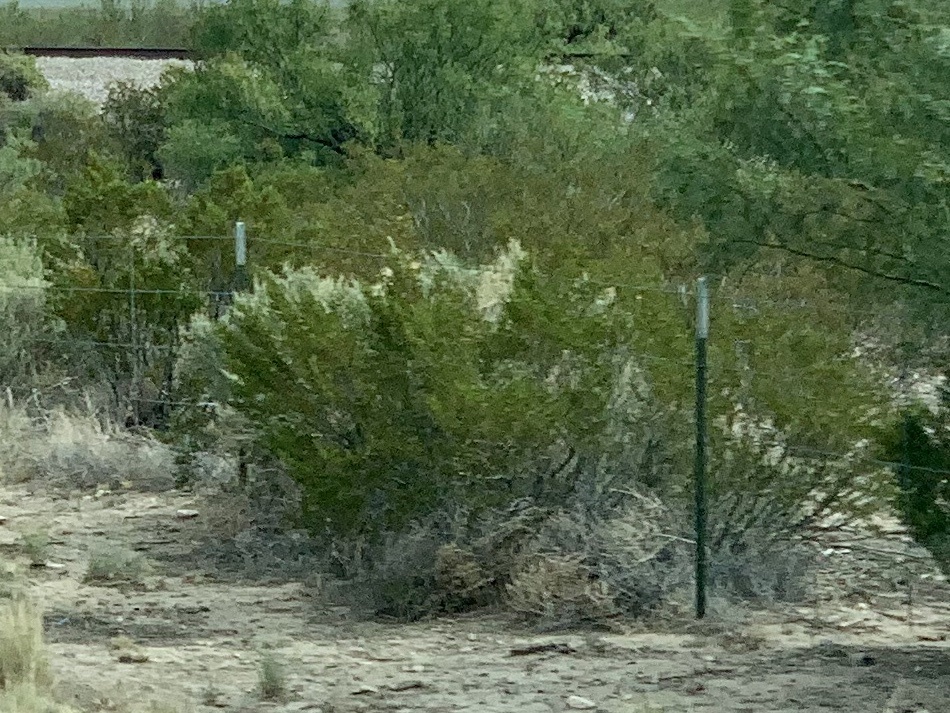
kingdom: Plantae
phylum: Tracheophyta
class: Magnoliopsida
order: Zygophyllales
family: Zygophyllaceae
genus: Larrea
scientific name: Larrea tridentata
